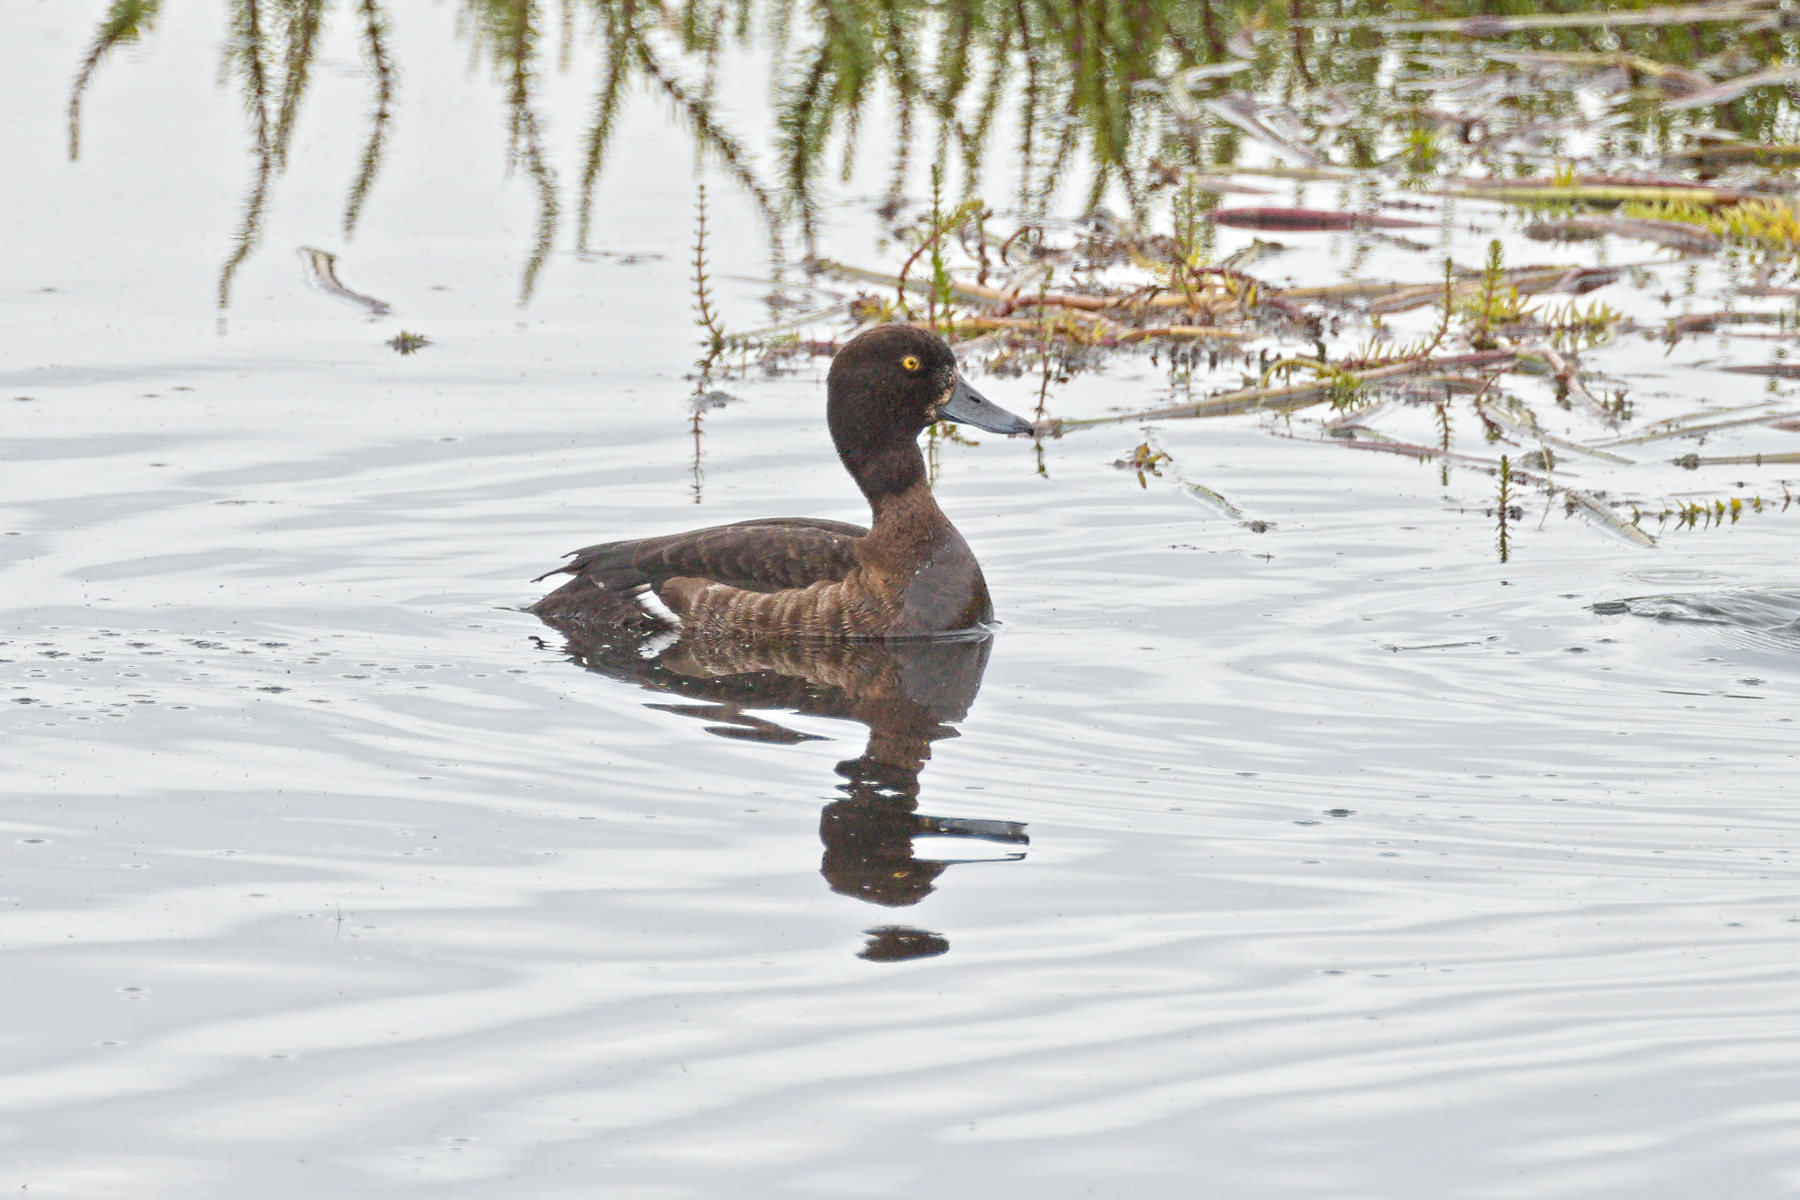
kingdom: Animalia
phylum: Chordata
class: Aves
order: Anseriformes
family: Anatidae
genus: Aythya
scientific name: Aythya fuligula
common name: Tufted duck
